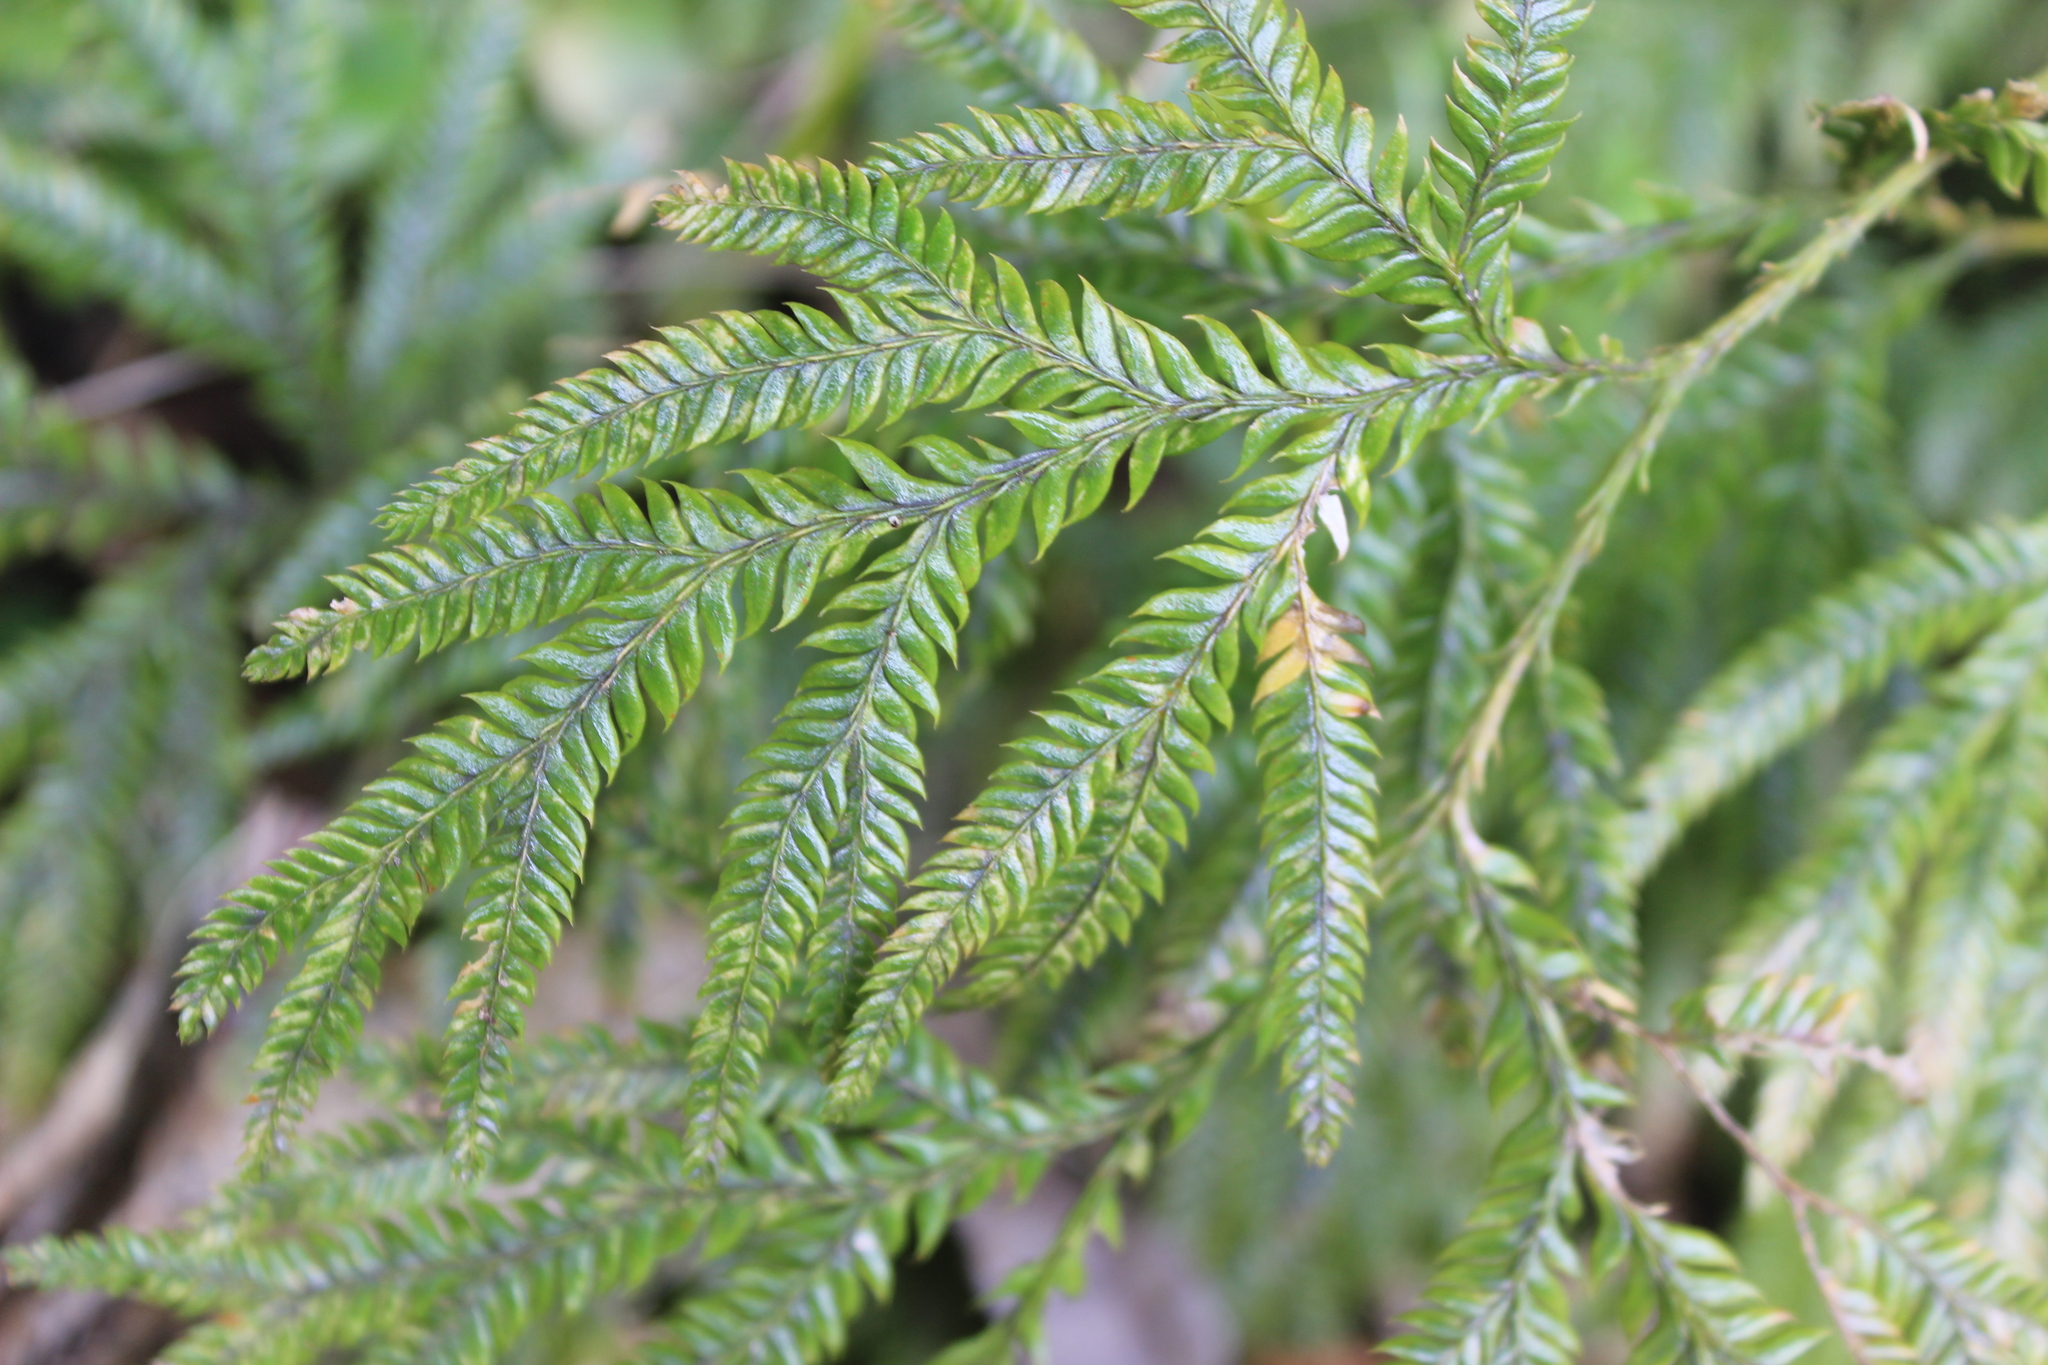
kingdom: Plantae
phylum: Tracheophyta
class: Lycopodiopsida
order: Lycopodiales
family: Lycopodiaceae
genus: Lycopodium
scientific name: Lycopodium volubile
